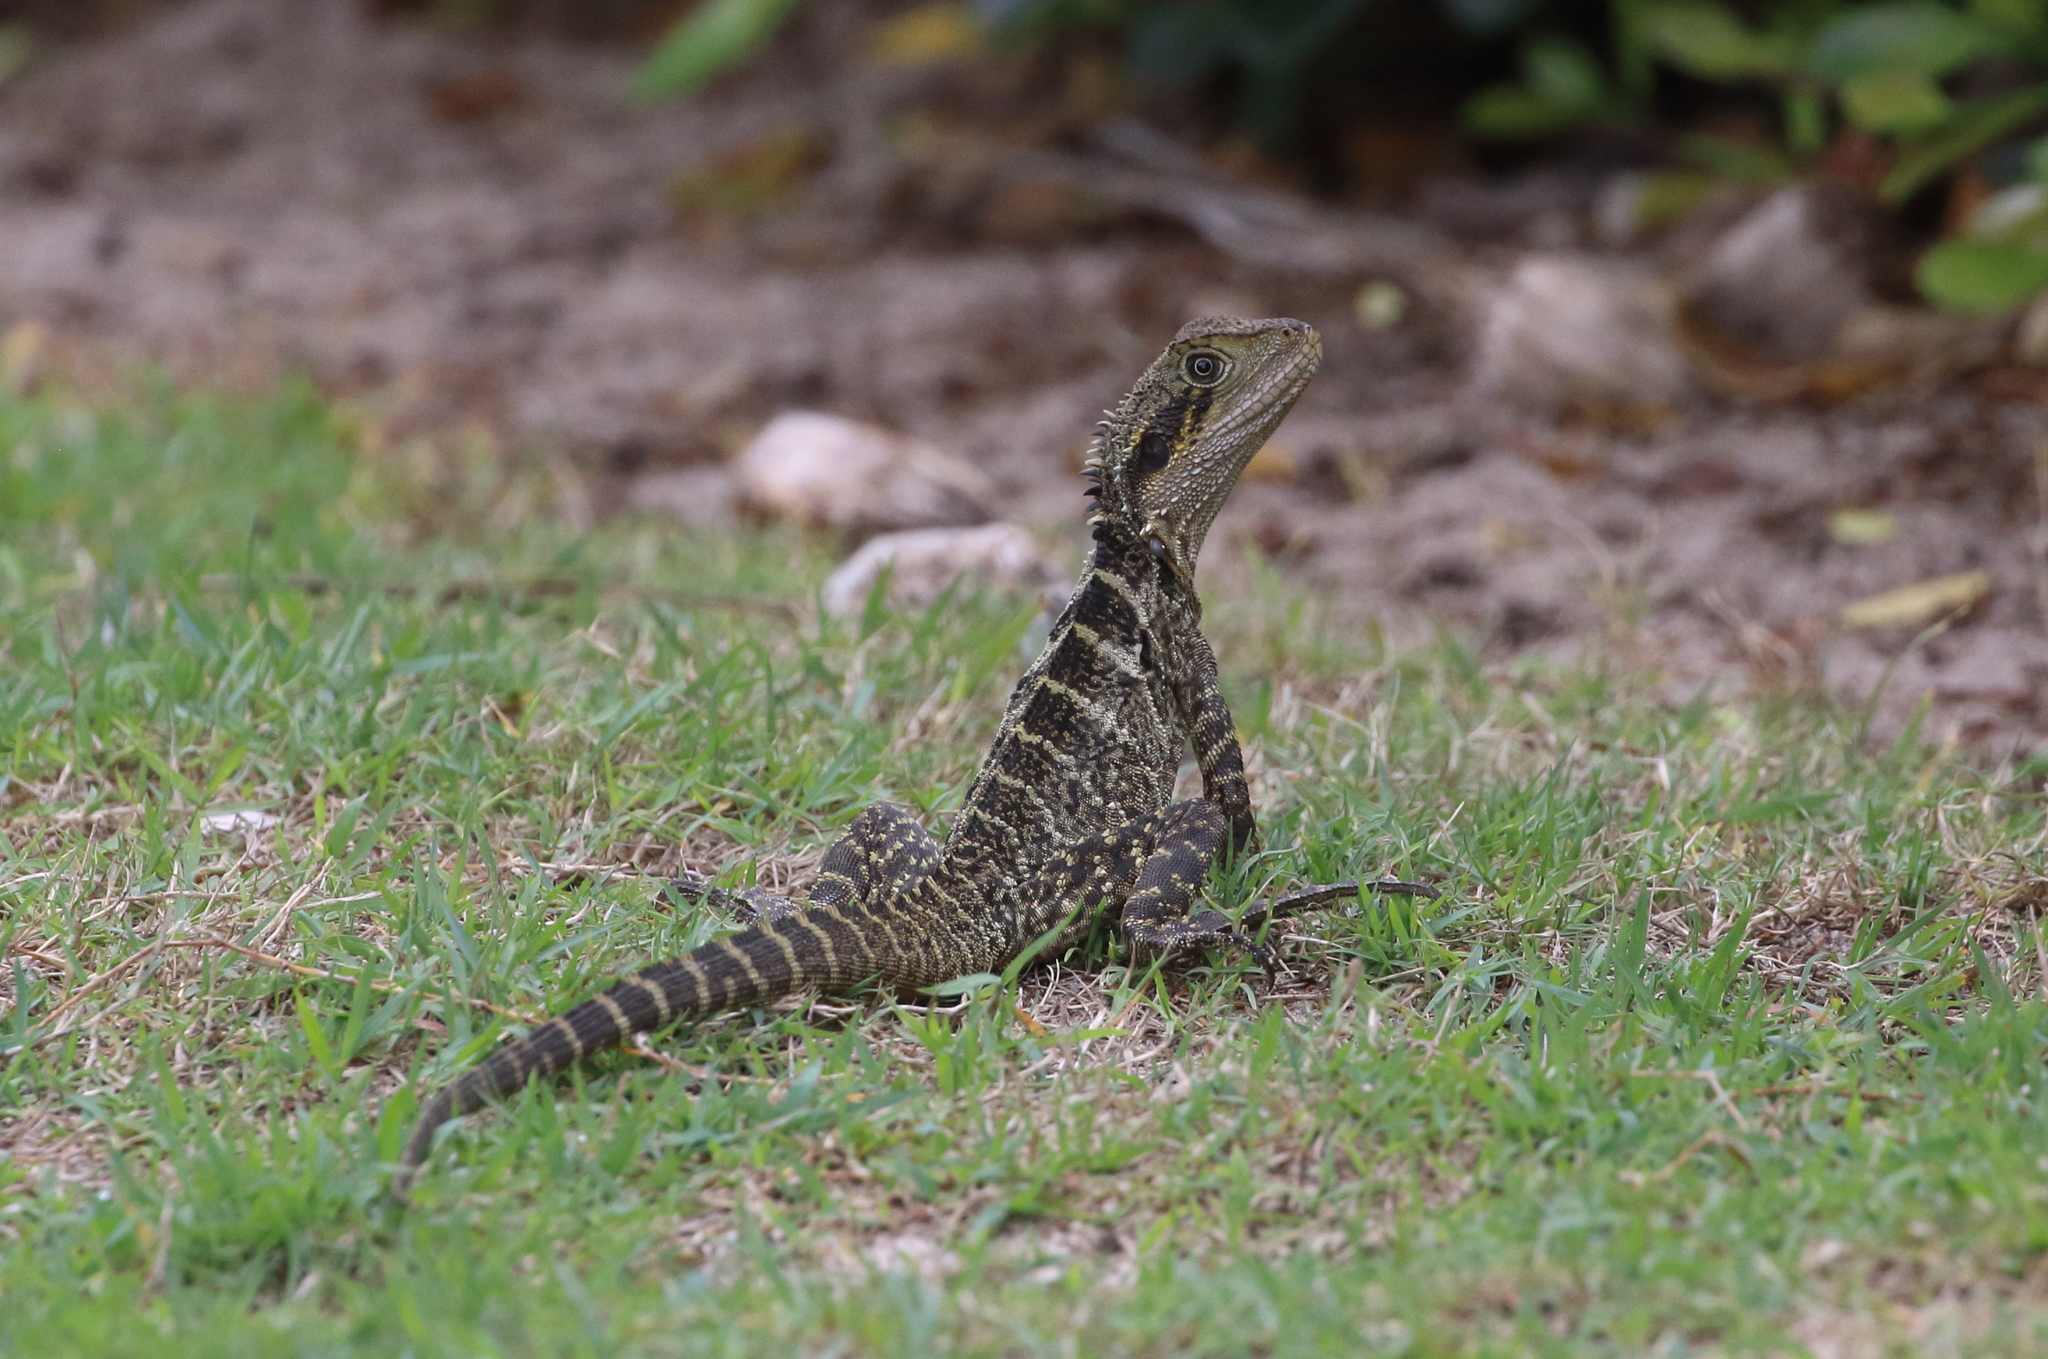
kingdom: Animalia
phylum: Chordata
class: Squamata
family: Agamidae
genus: Intellagama
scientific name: Intellagama lesueurii
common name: Eastern water dragon
